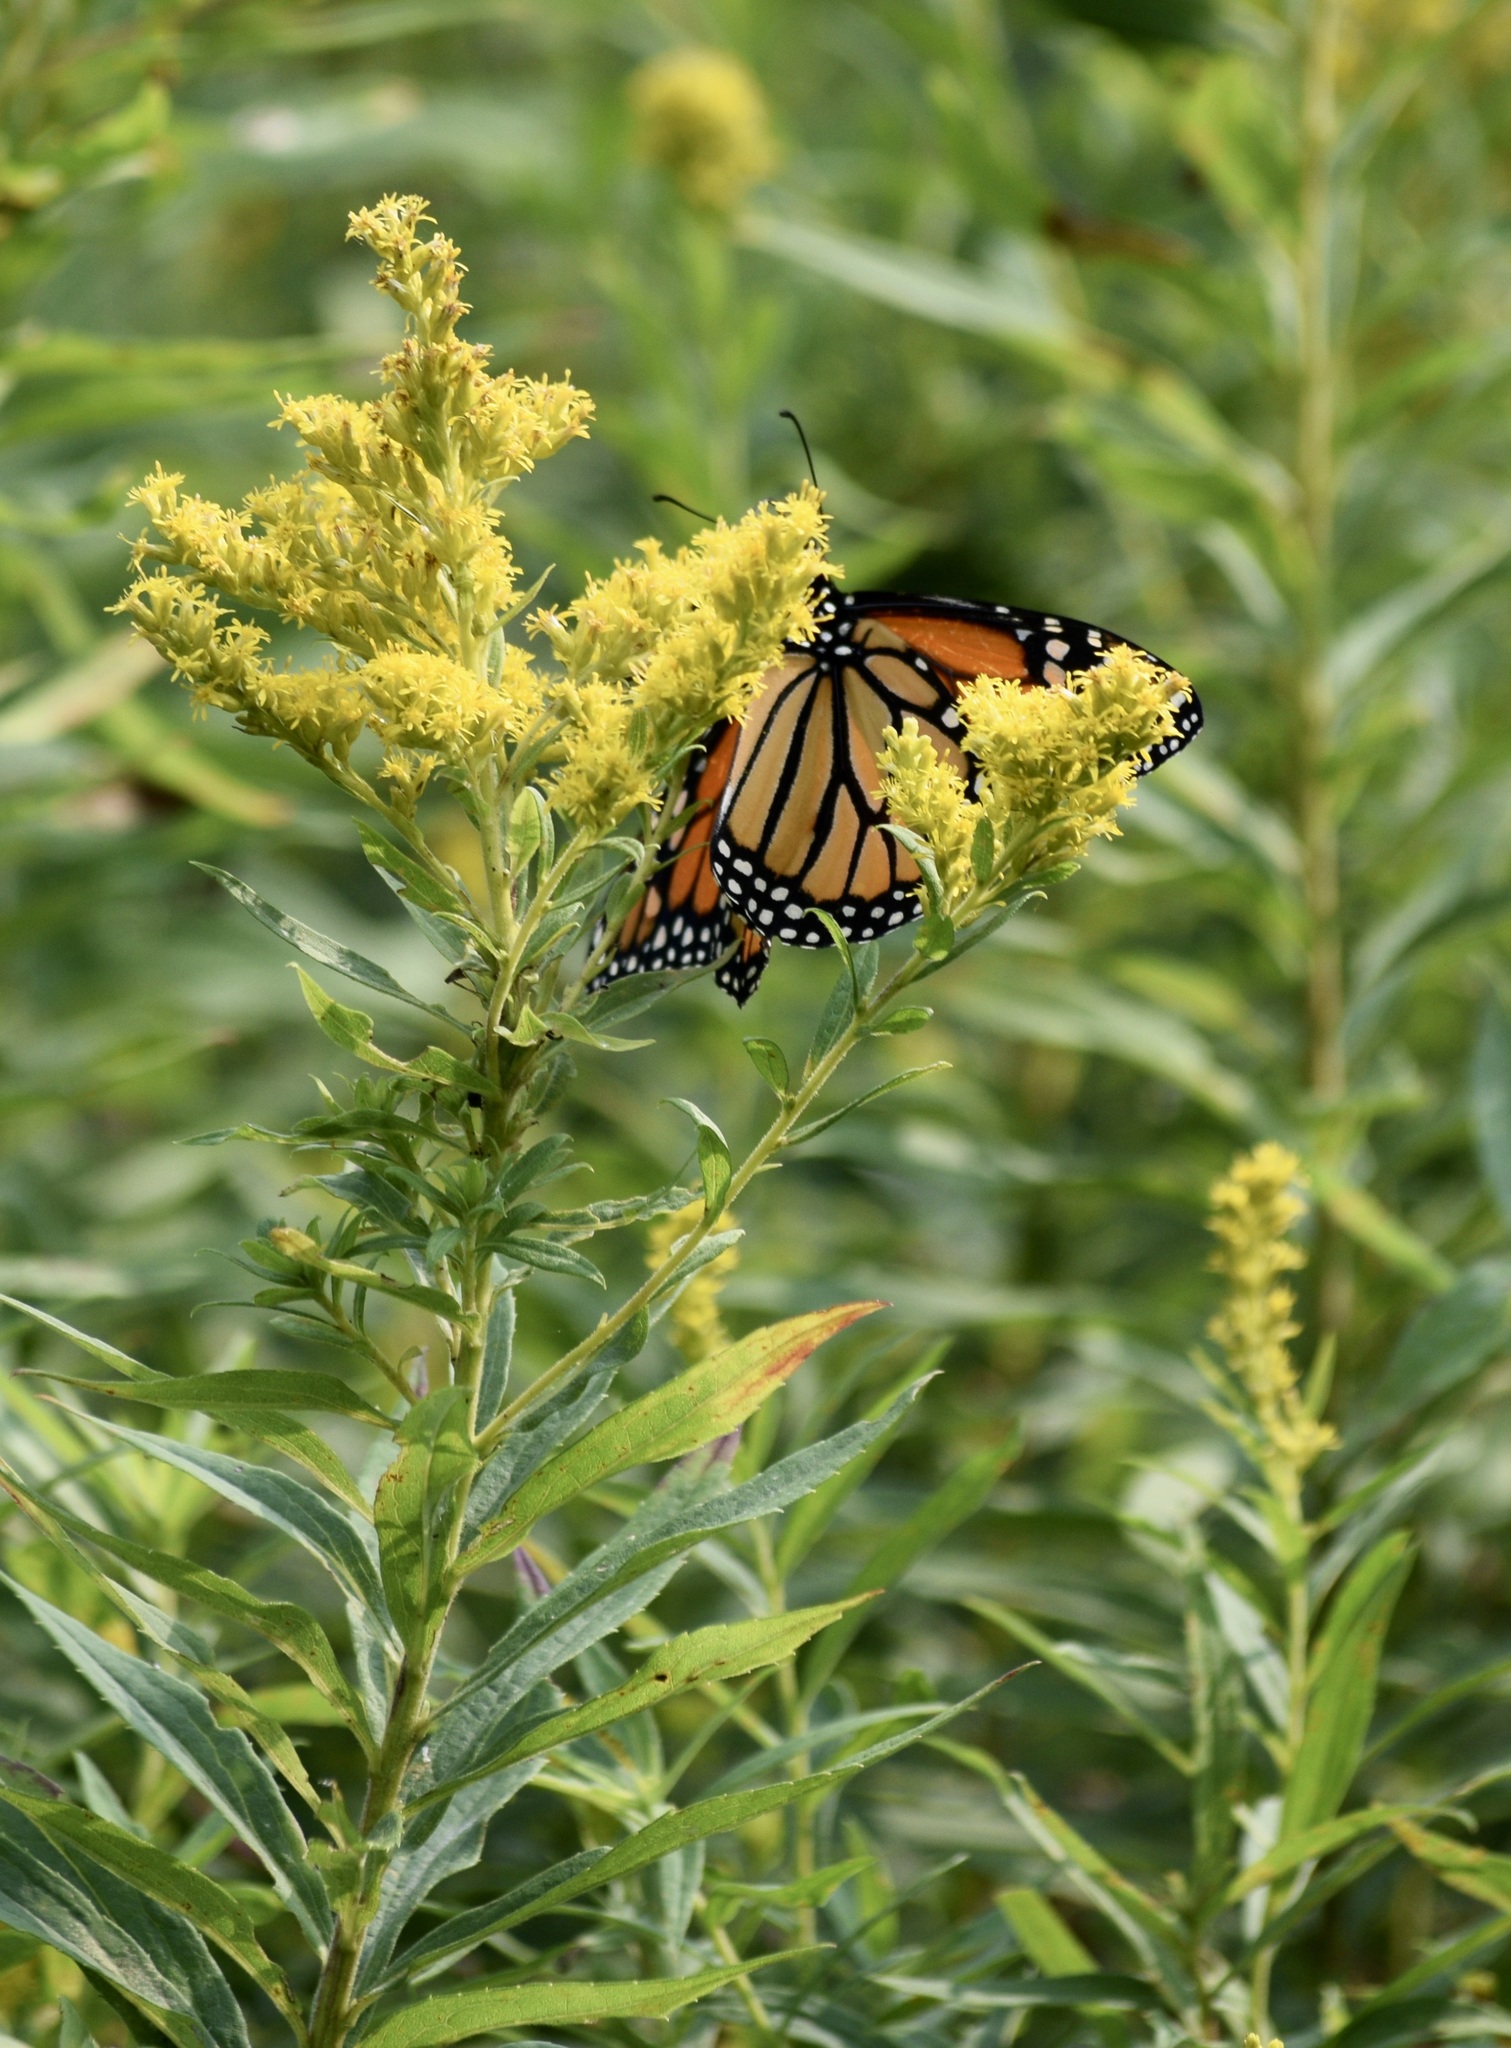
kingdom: Animalia
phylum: Arthropoda
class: Insecta
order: Lepidoptera
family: Nymphalidae
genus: Danaus
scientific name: Danaus plexippus
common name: Monarch
